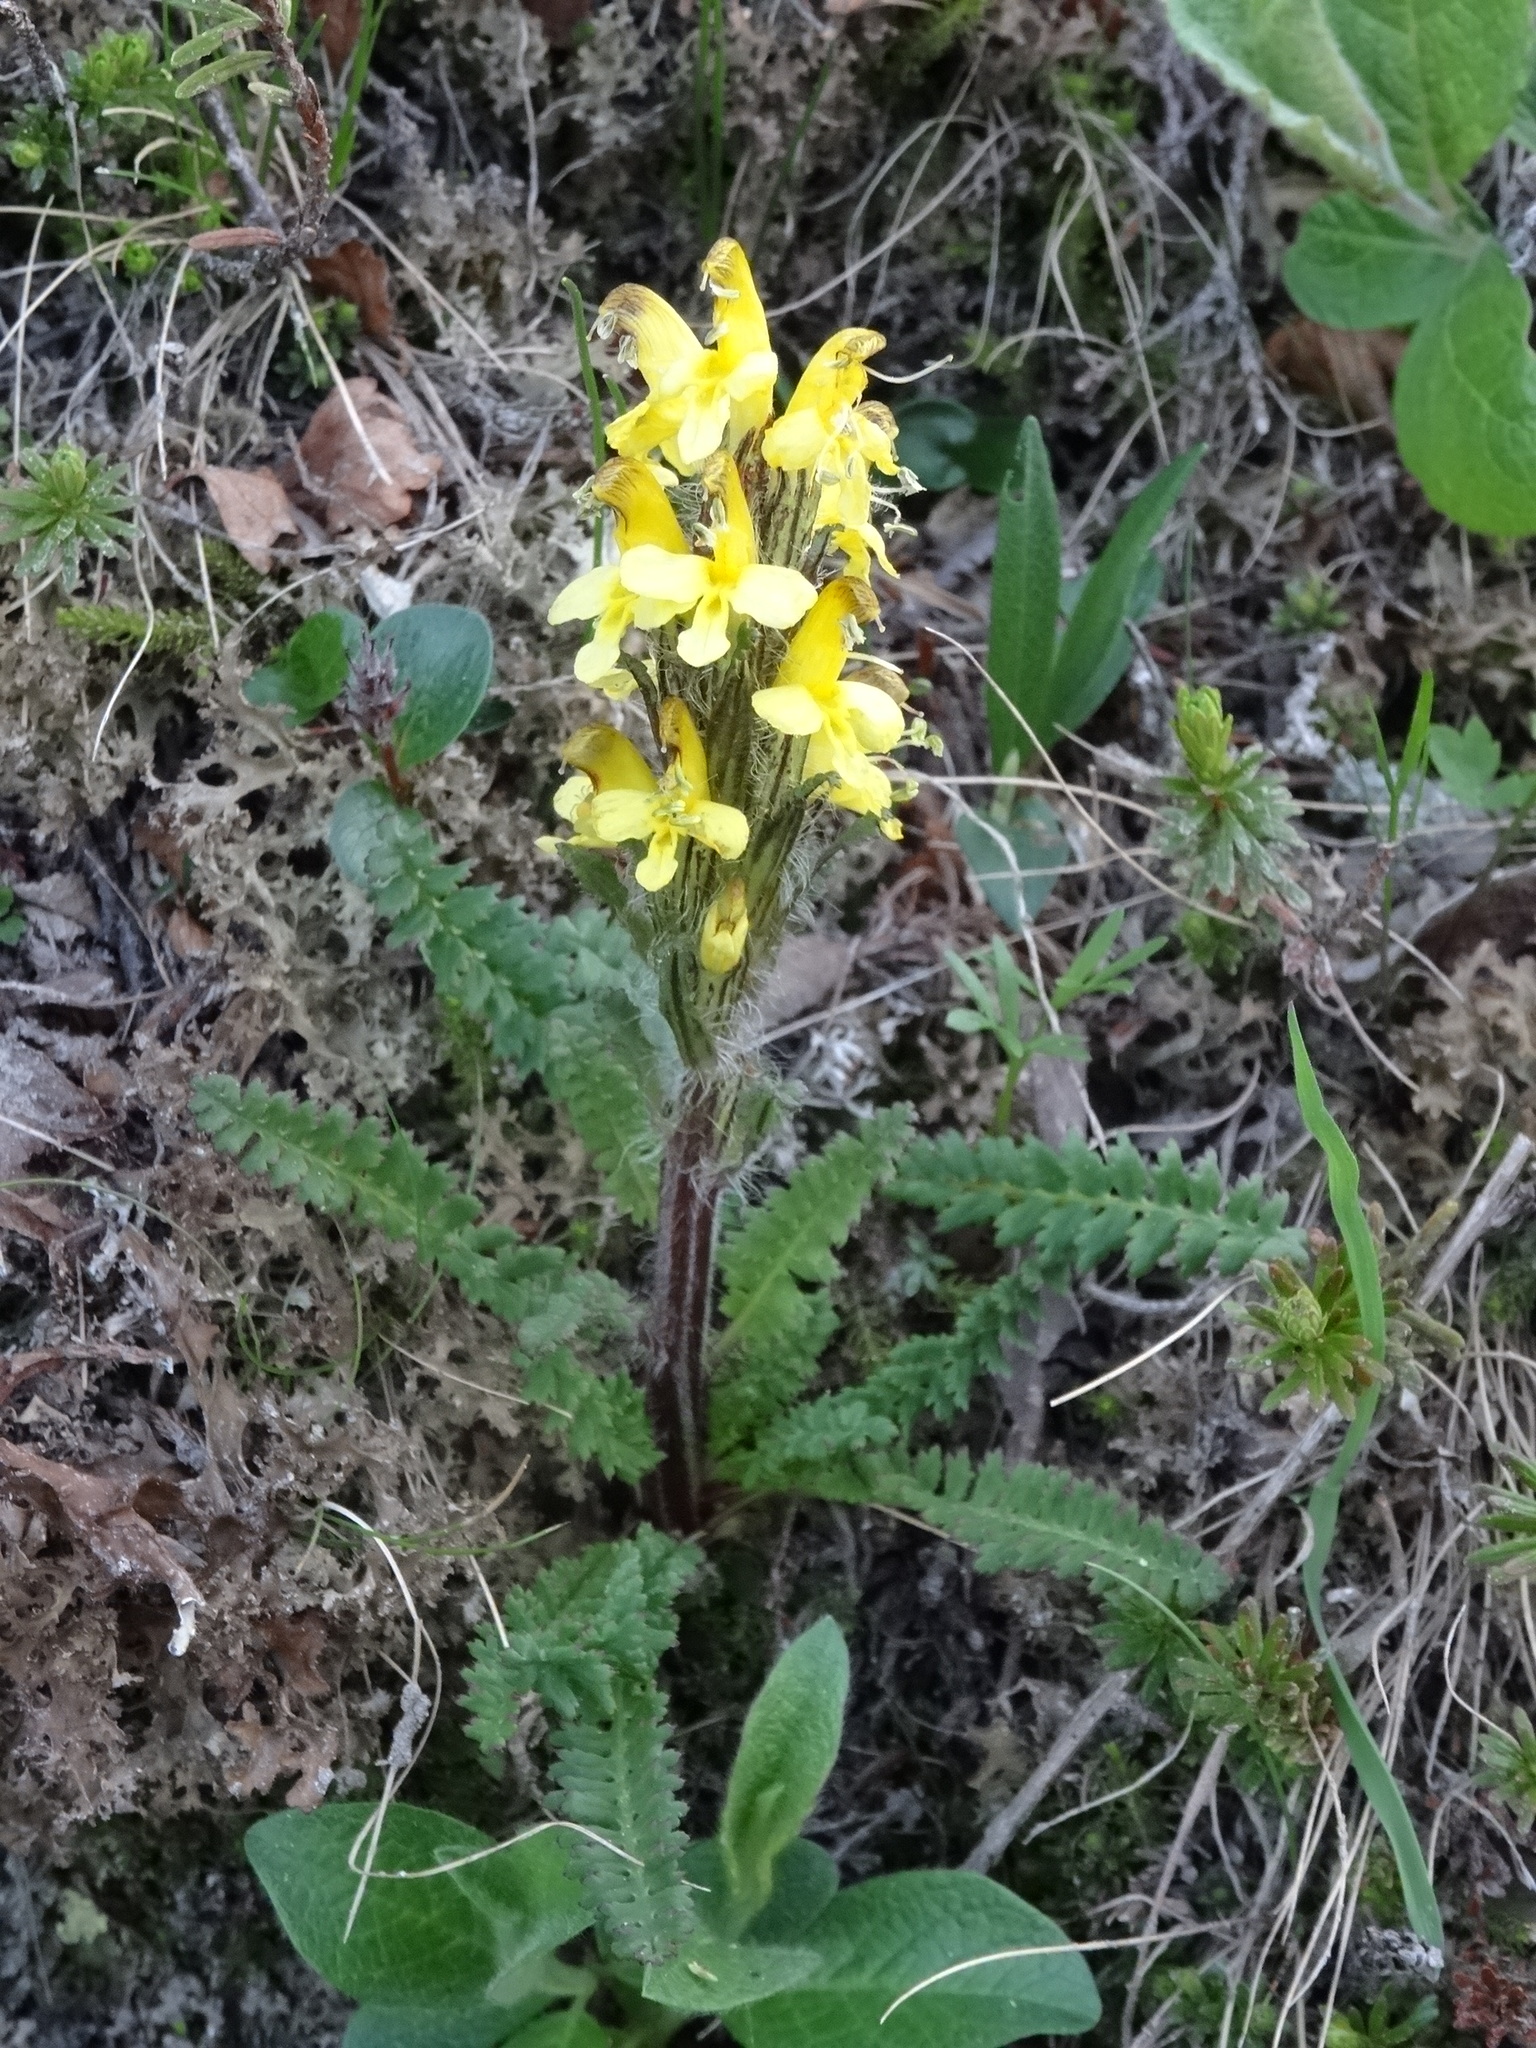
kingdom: Plantae
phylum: Tracheophyta
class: Magnoliopsida
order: Lamiales
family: Orobanchaceae
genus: Pedicularis
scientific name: Pedicularis oederi
